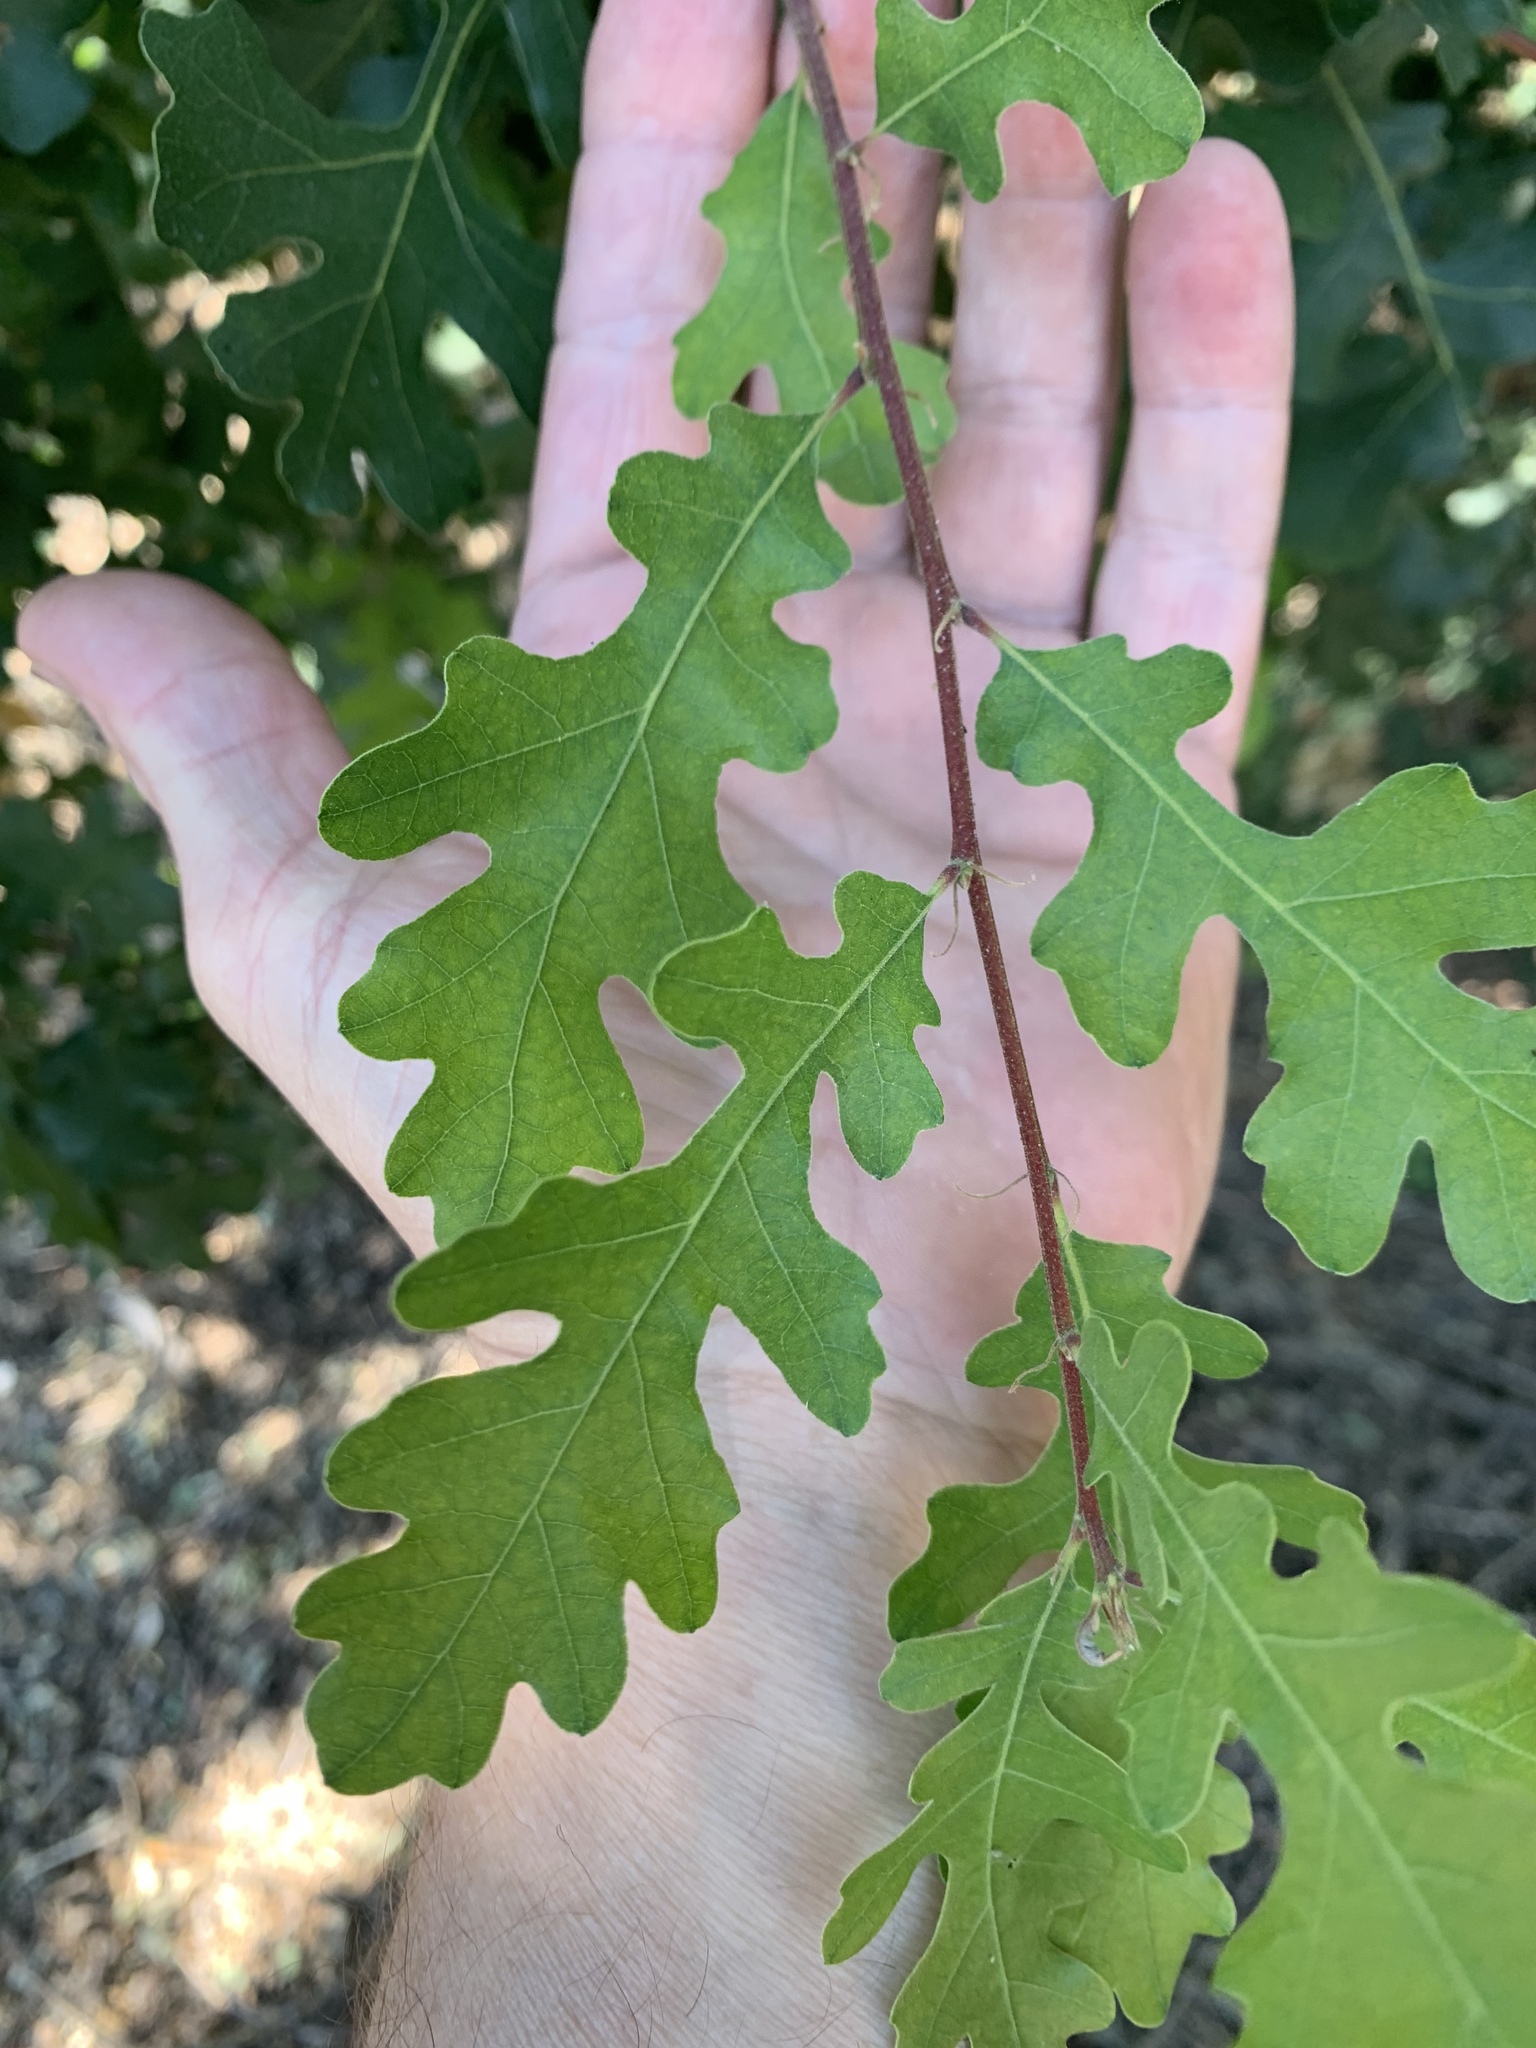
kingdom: Plantae
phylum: Tracheophyta
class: Magnoliopsida
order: Fagales
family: Fagaceae
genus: Quercus
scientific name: Quercus lobata
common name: Valley oak
